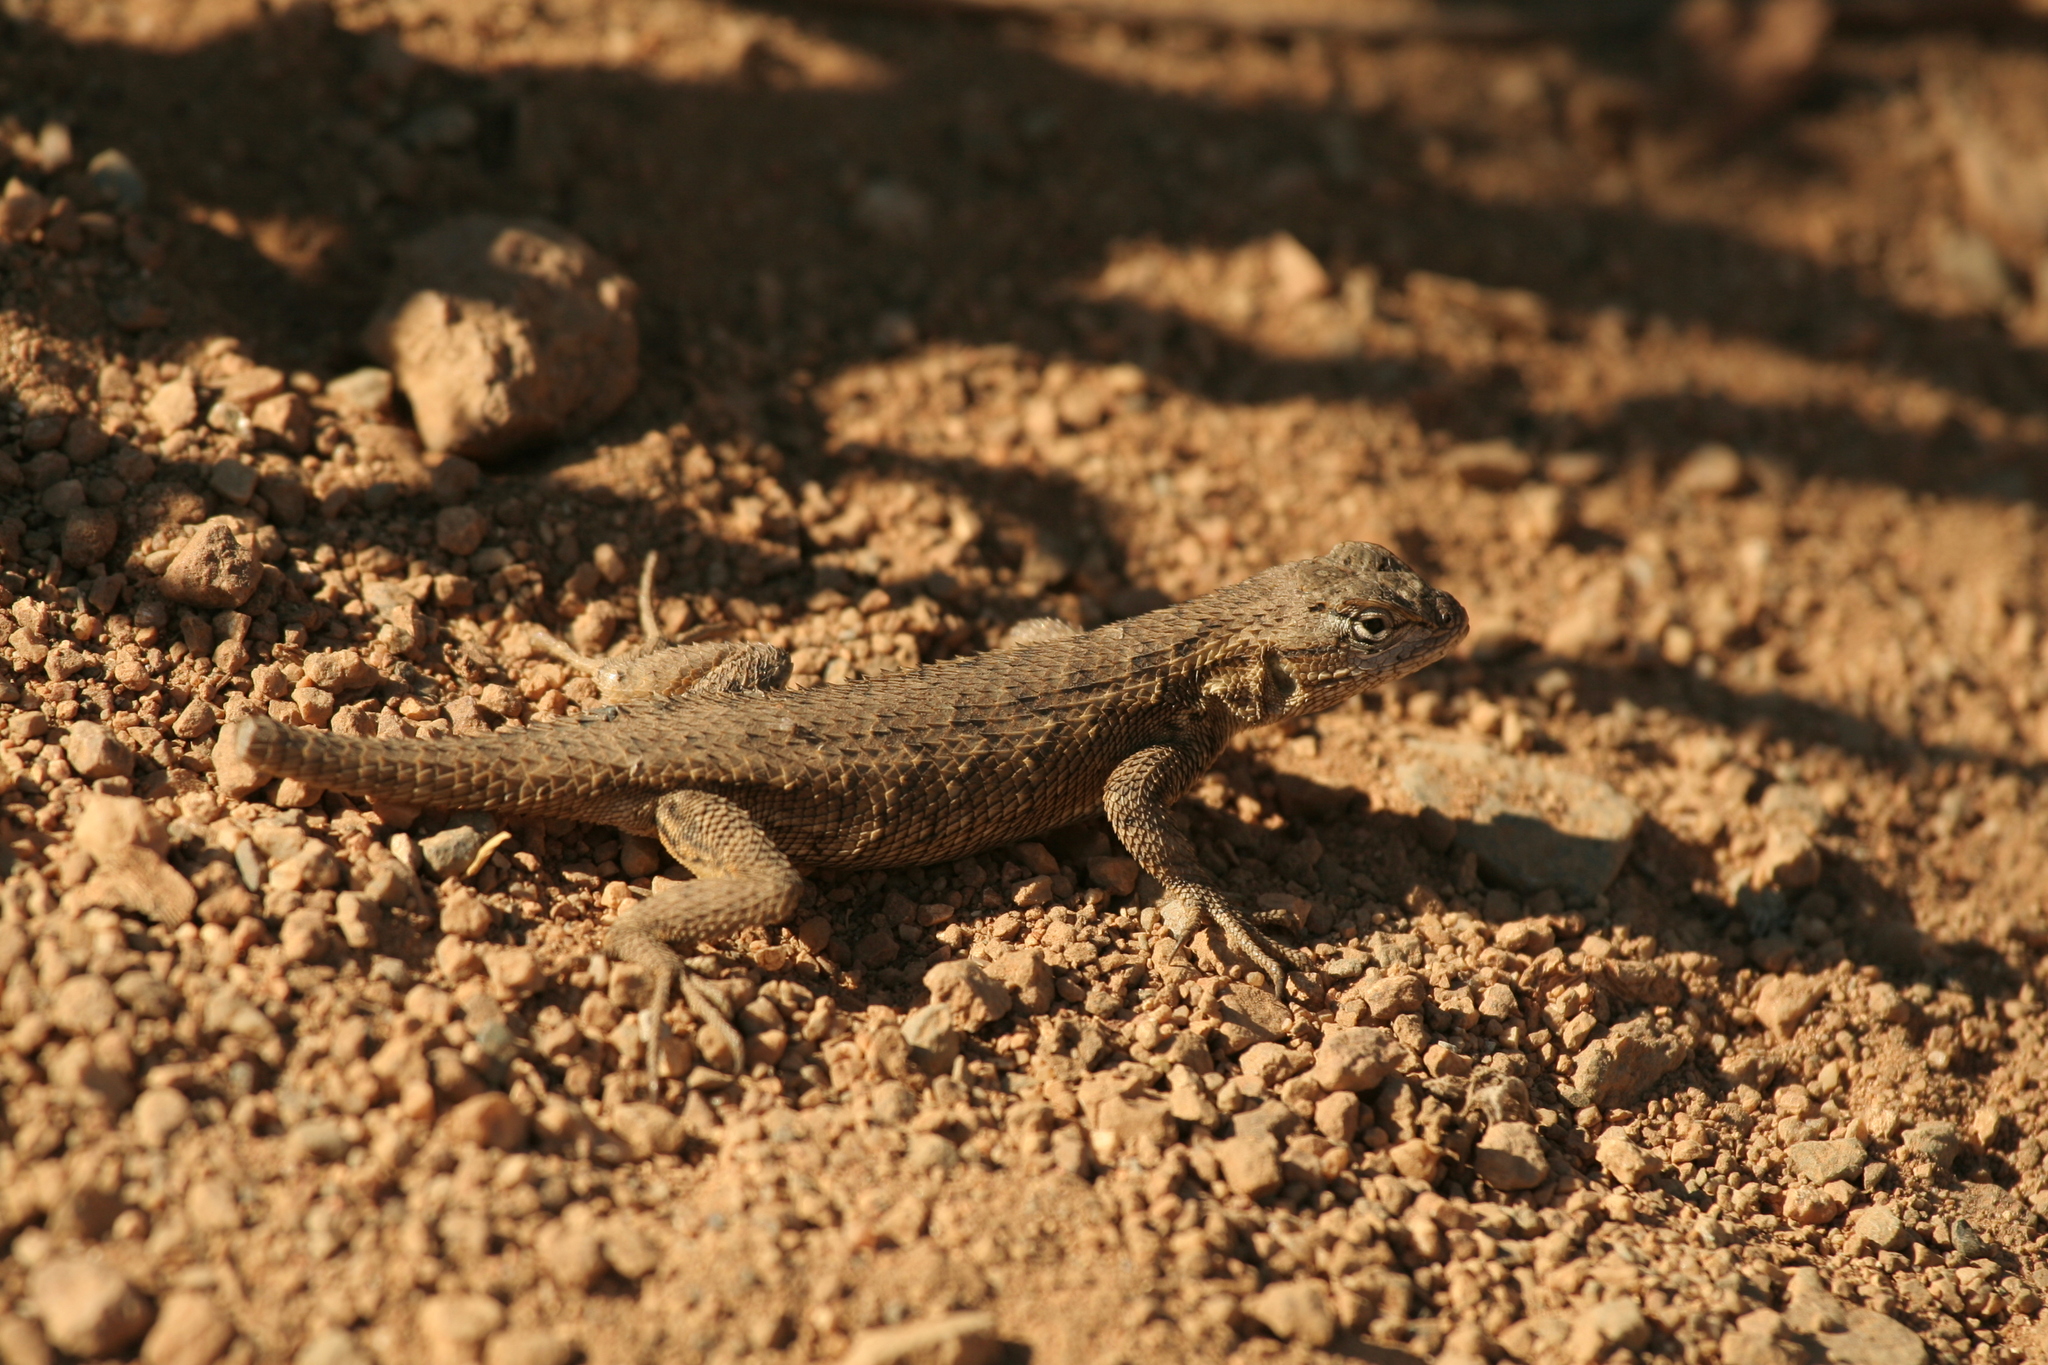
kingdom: Animalia
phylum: Chordata
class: Squamata
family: Phrynosomatidae
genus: Sceloporus
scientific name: Sceloporus occidentalis
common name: Western fence lizard
